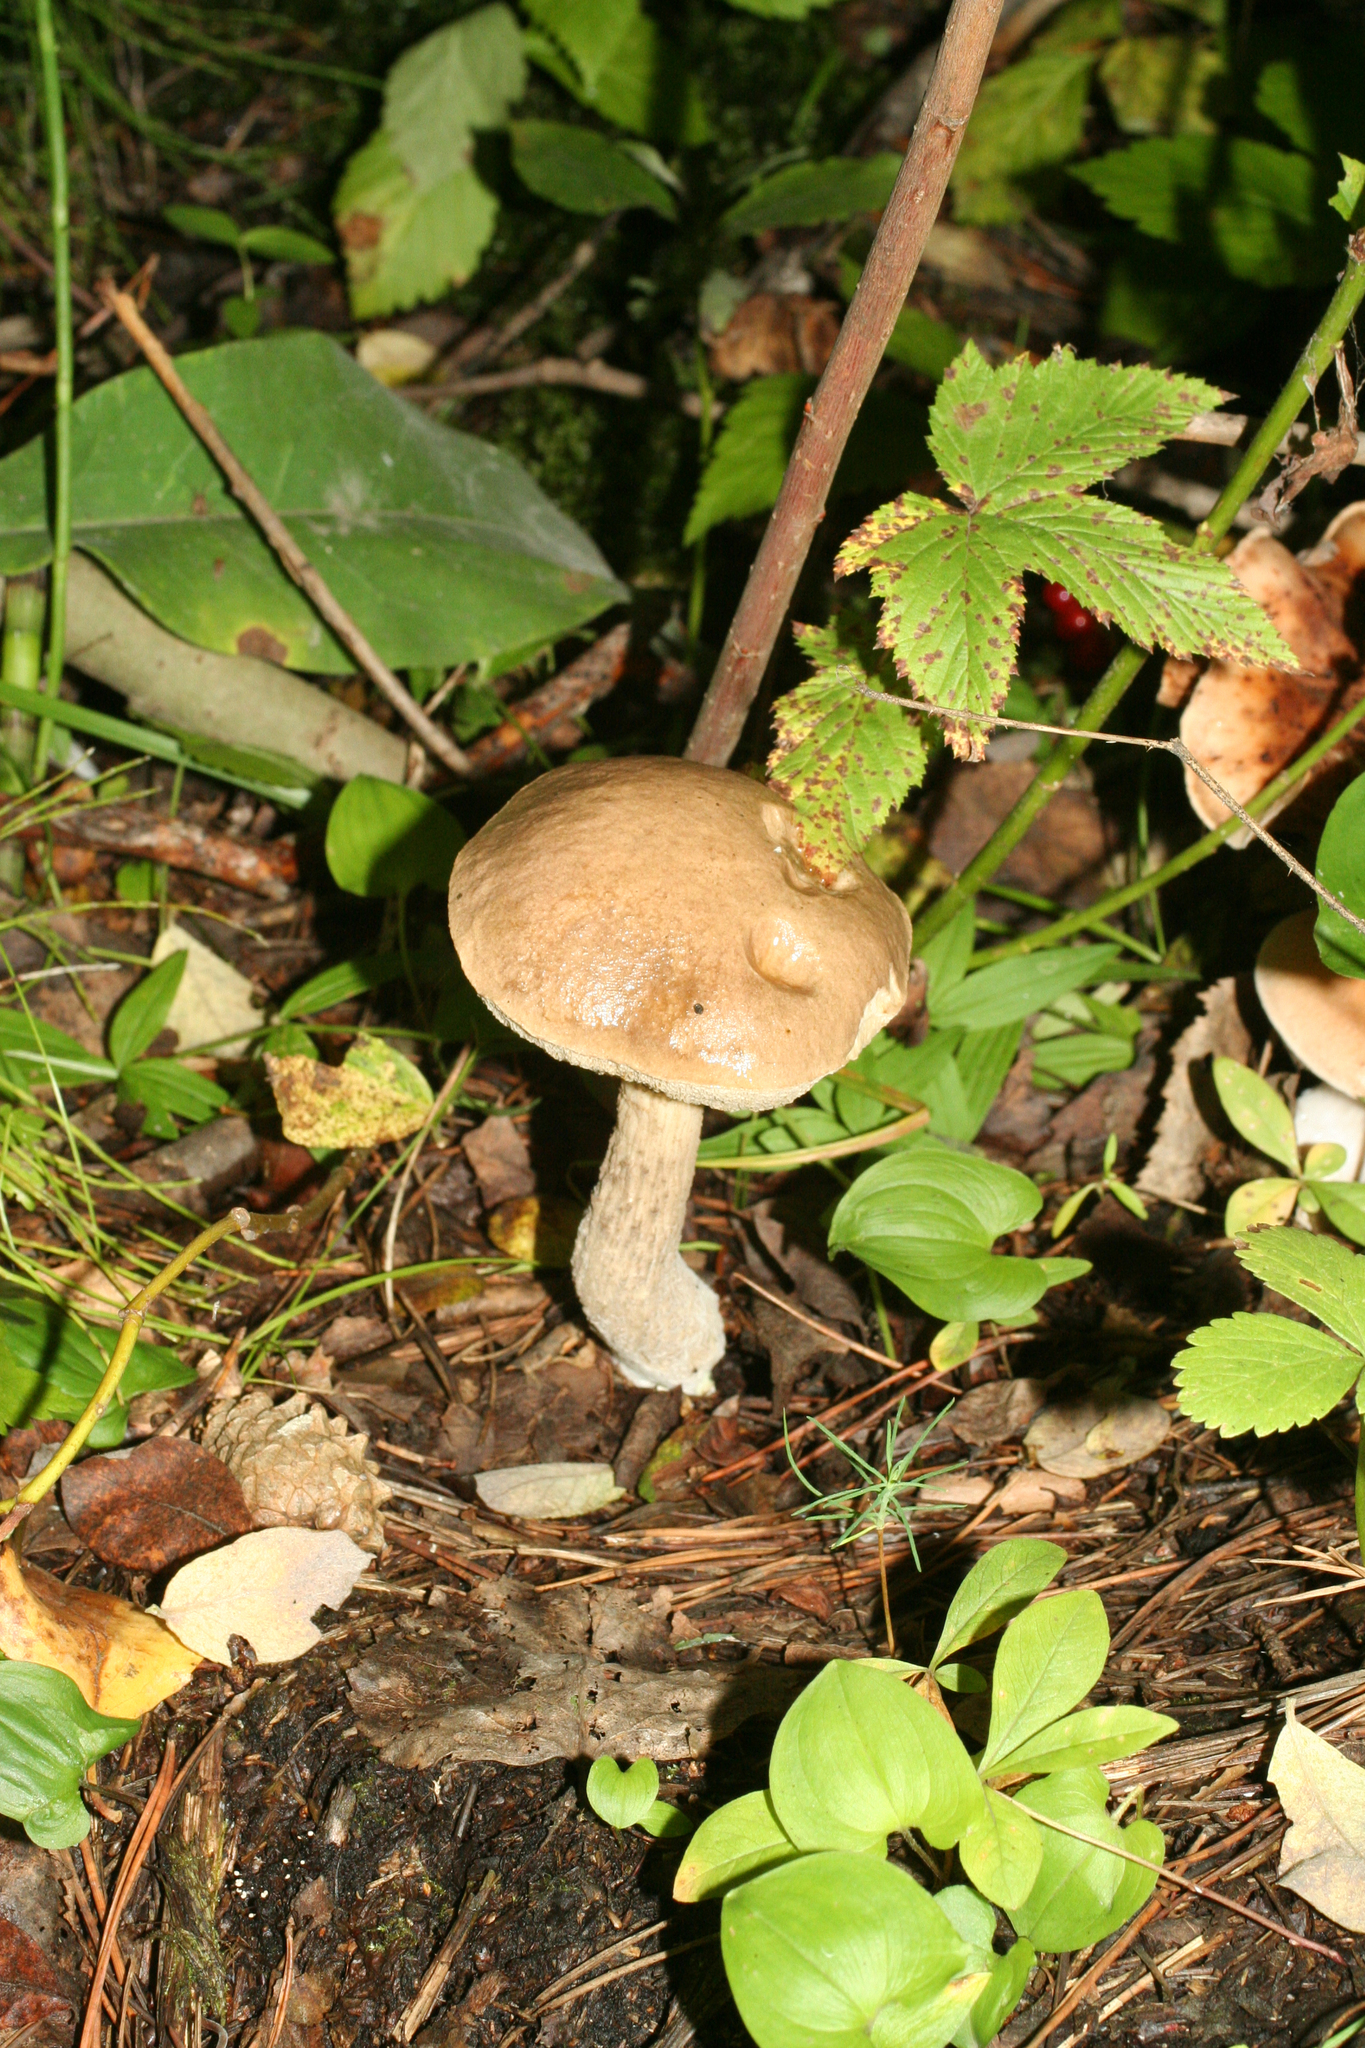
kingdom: Fungi
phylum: Basidiomycota
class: Agaricomycetes
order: Boletales
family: Boletaceae
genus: Leccinum
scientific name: Leccinum scabrum
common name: Blushing bolete
